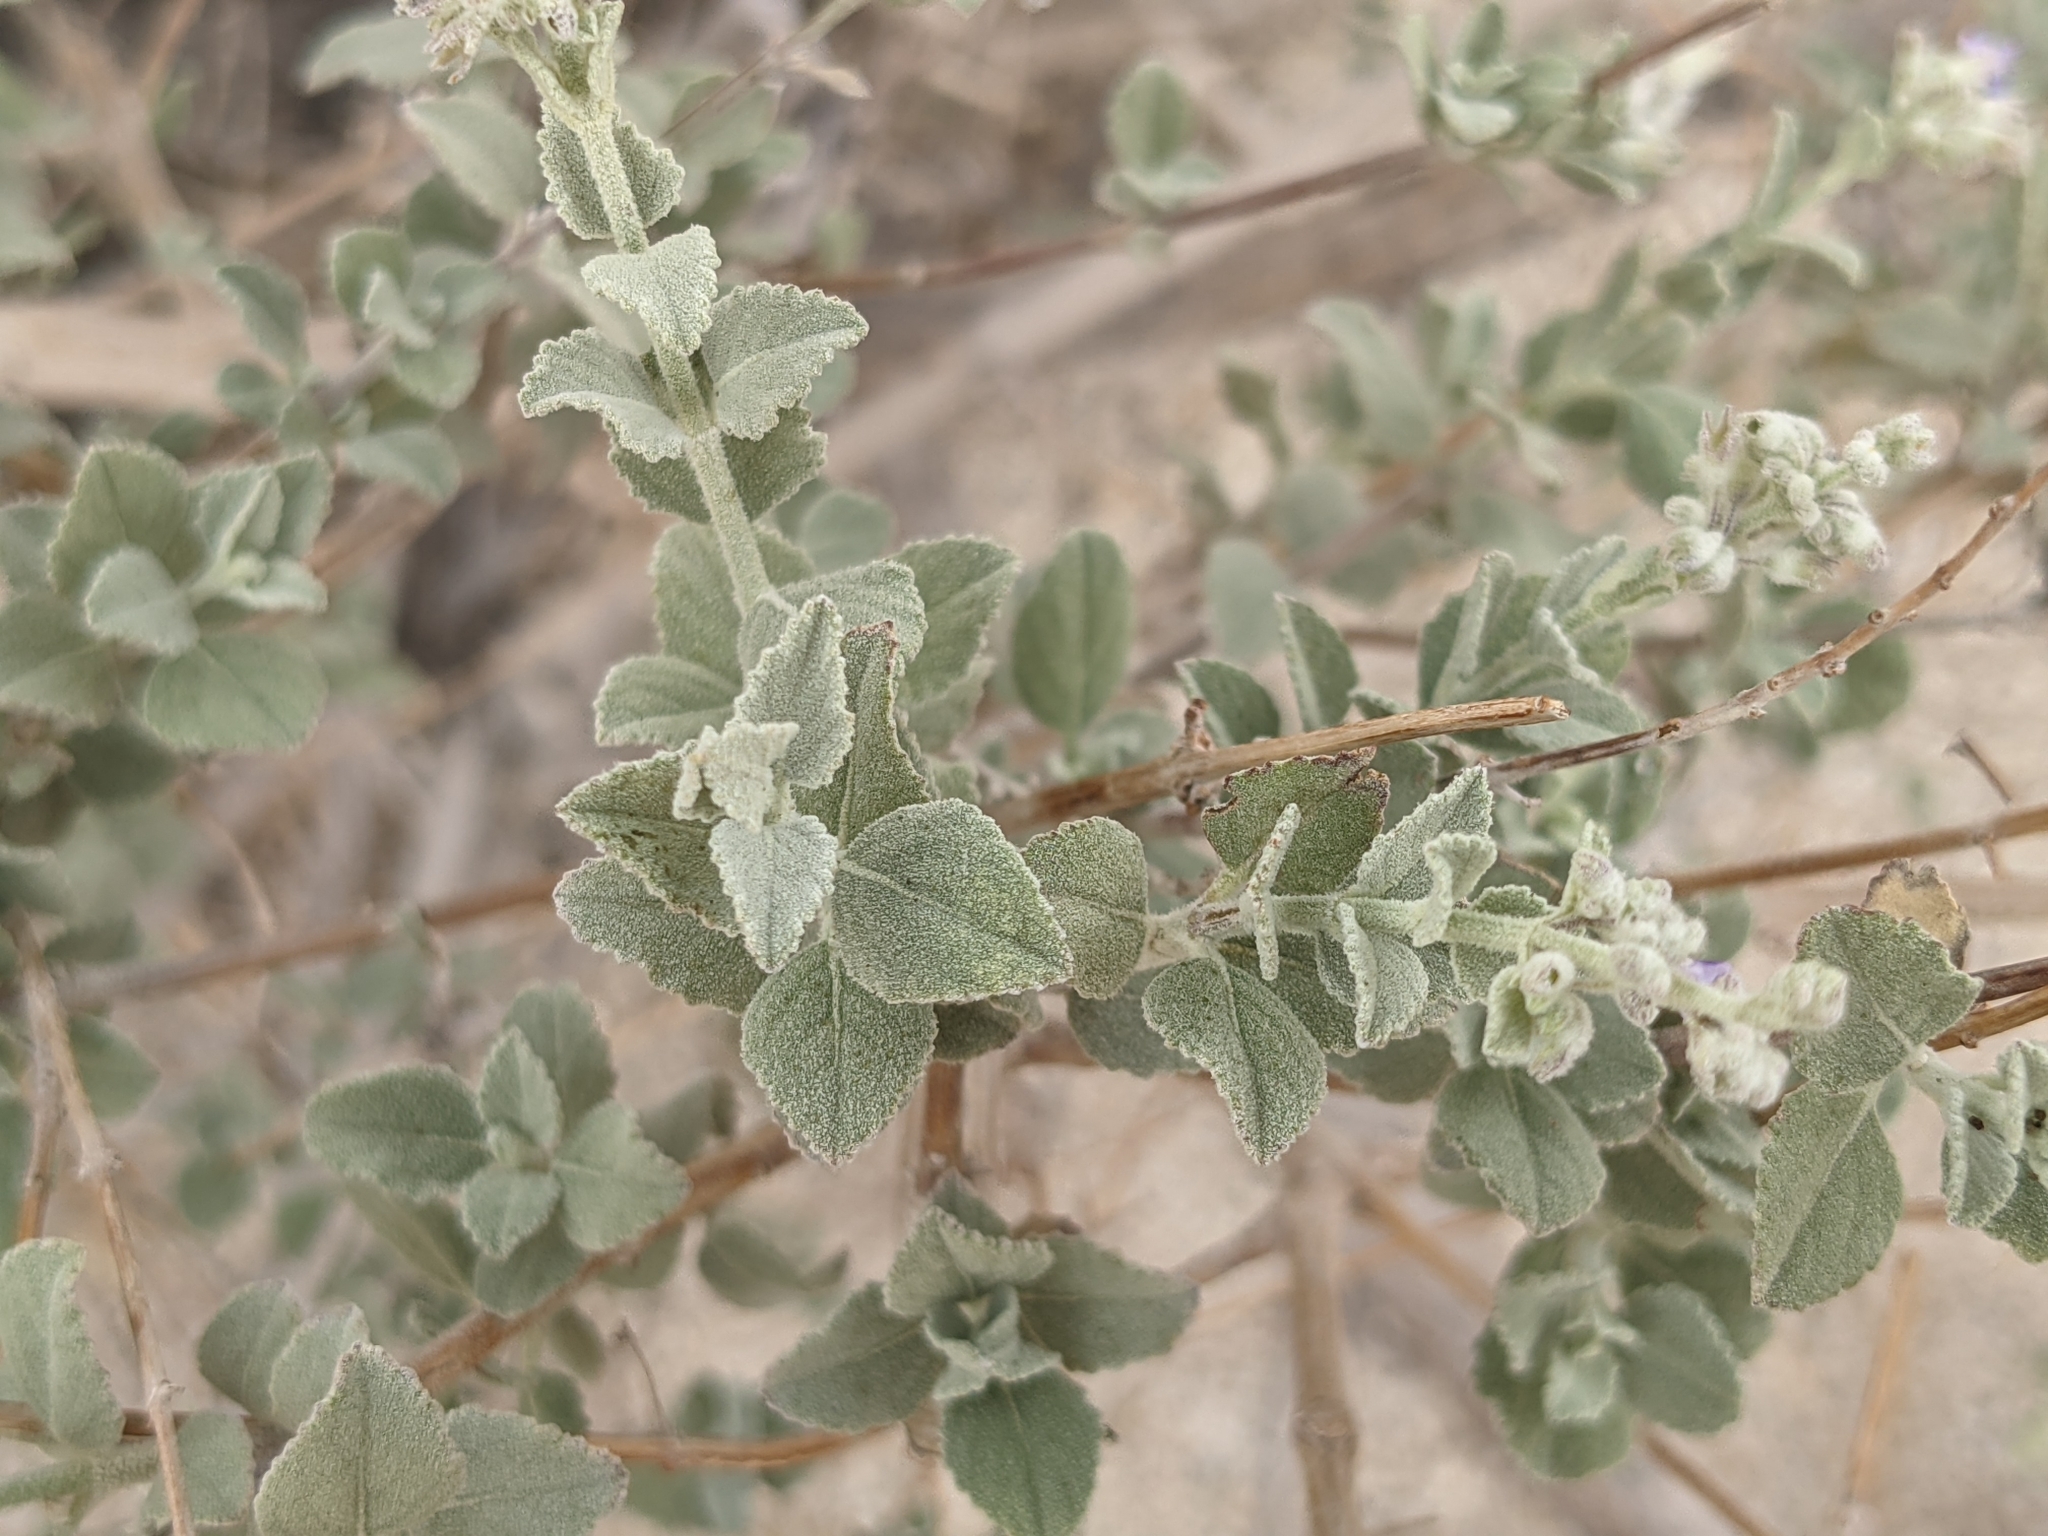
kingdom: Plantae
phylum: Tracheophyta
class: Magnoliopsida
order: Lamiales
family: Lamiaceae
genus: Condea
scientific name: Condea emoryi
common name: Chia
